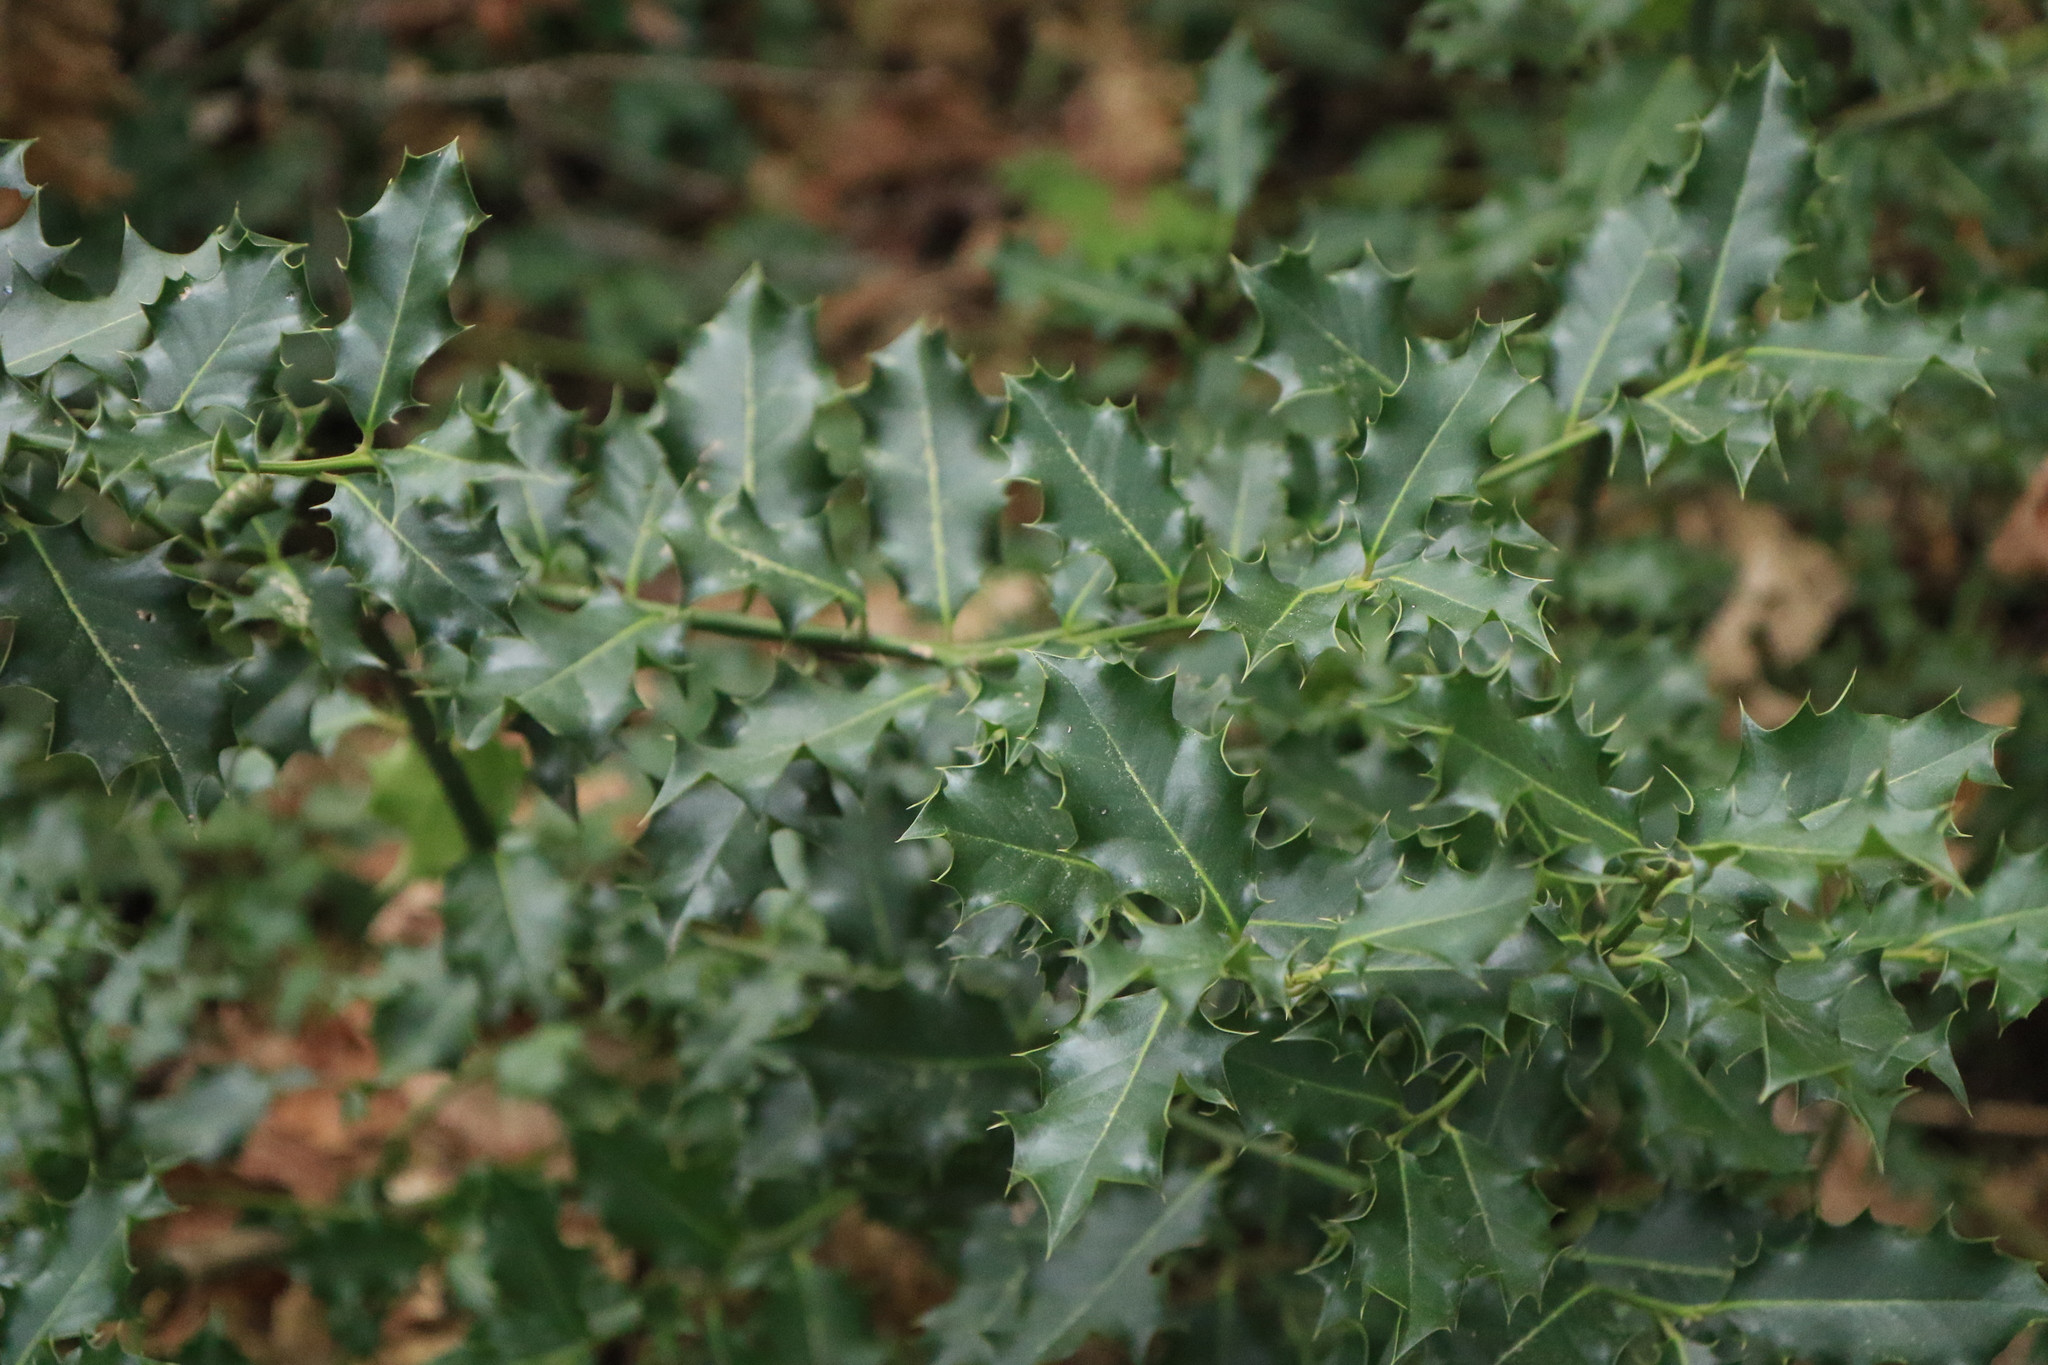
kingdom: Plantae
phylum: Tracheophyta
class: Magnoliopsida
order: Aquifoliales
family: Aquifoliaceae
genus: Ilex
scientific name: Ilex aquifolium
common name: English holly
